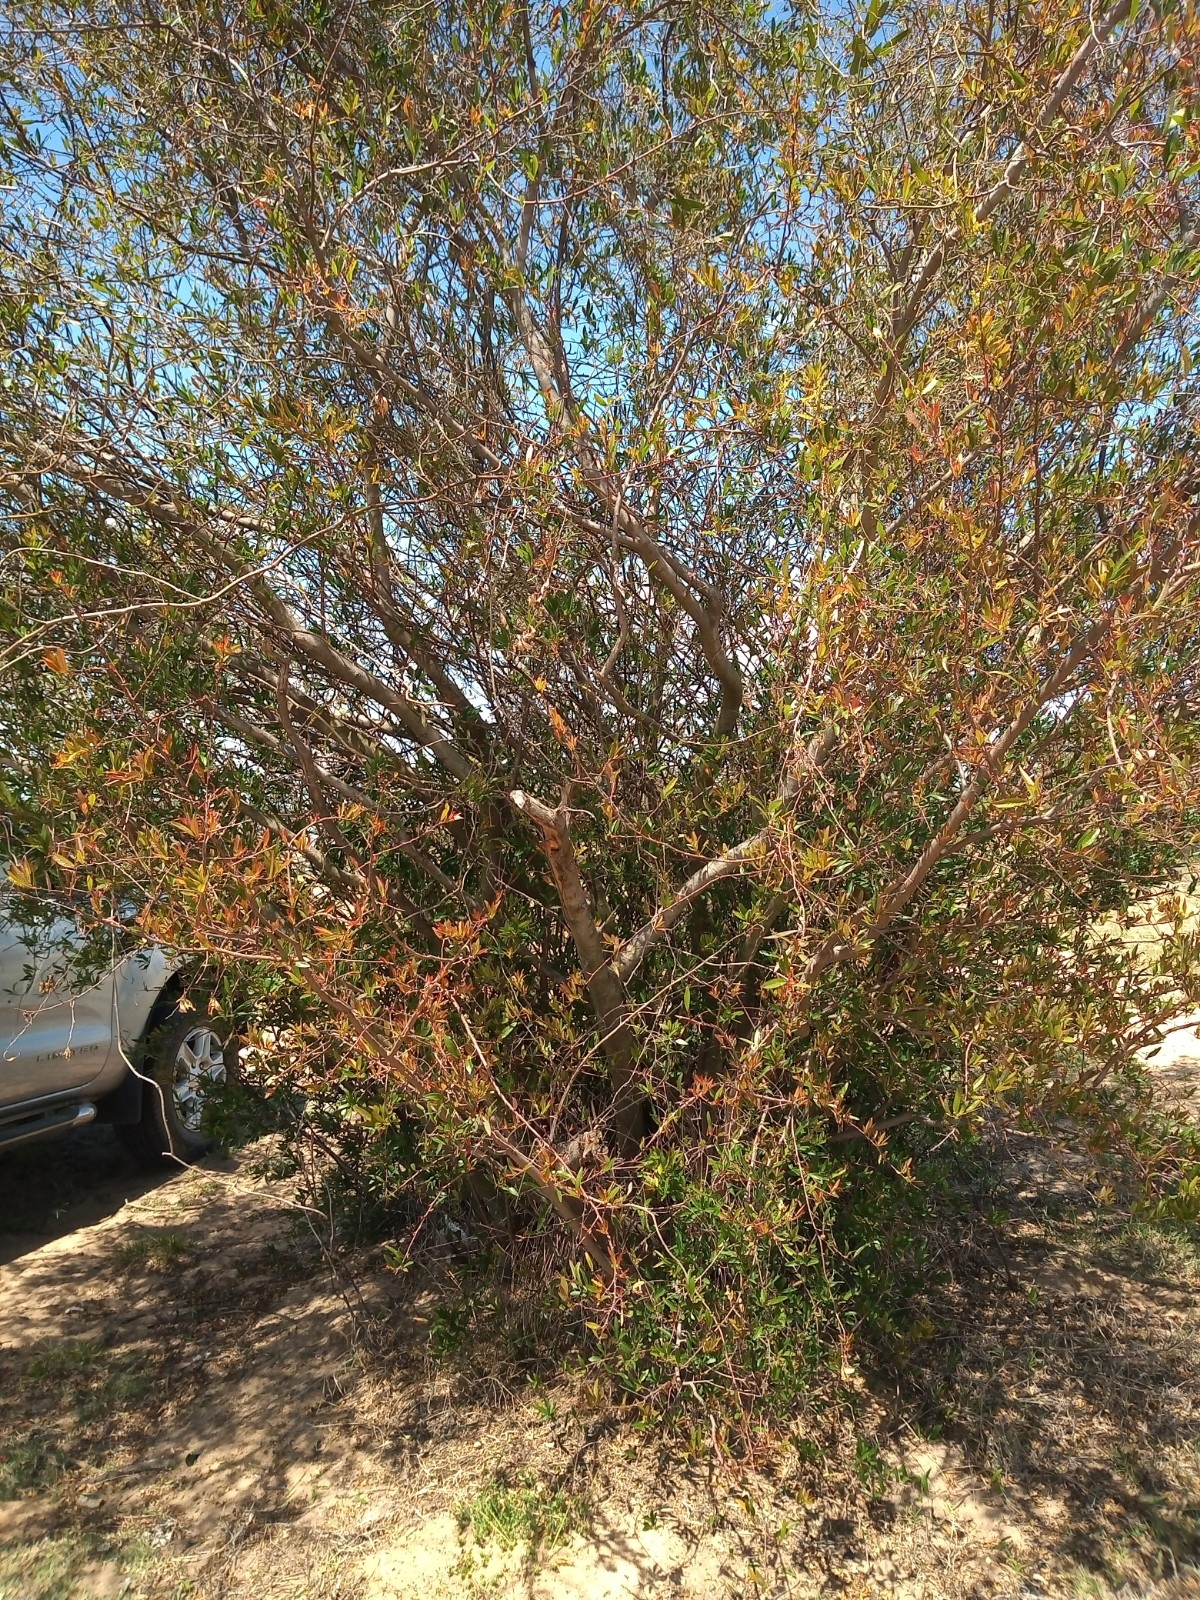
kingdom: Plantae
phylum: Tracheophyta
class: Magnoliopsida
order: Malpighiales
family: Euphorbiaceae
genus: Sebastiania
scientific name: Sebastiania schottiana
